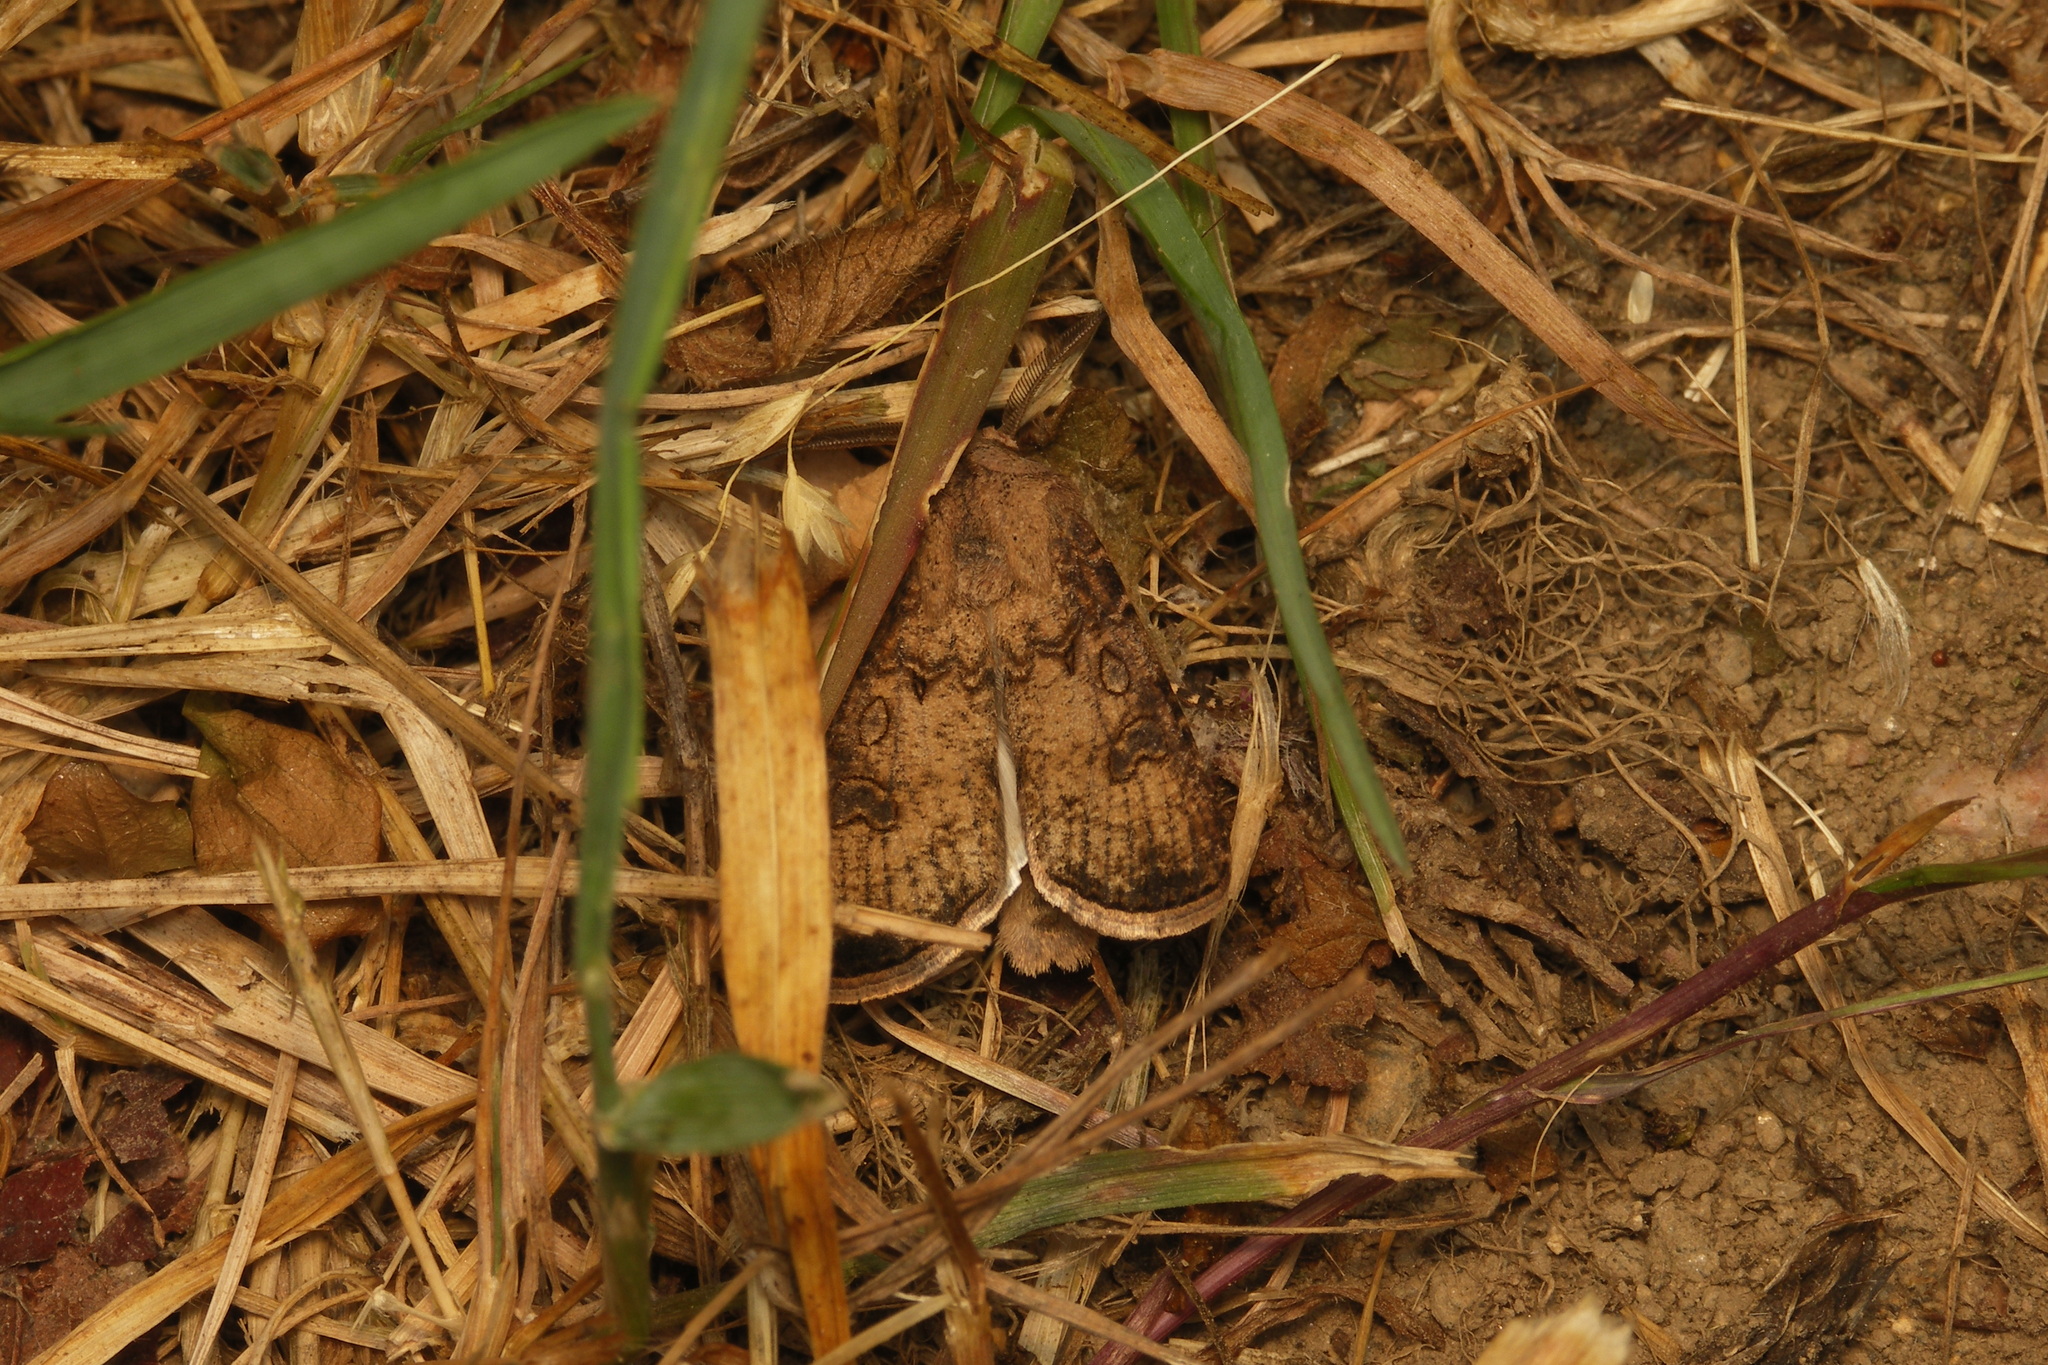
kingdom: Animalia
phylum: Arthropoda
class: Insecta
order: Lepidoptera
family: Noctuidae
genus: Agrotis
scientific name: Agrotis segetum
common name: Turnip moth
